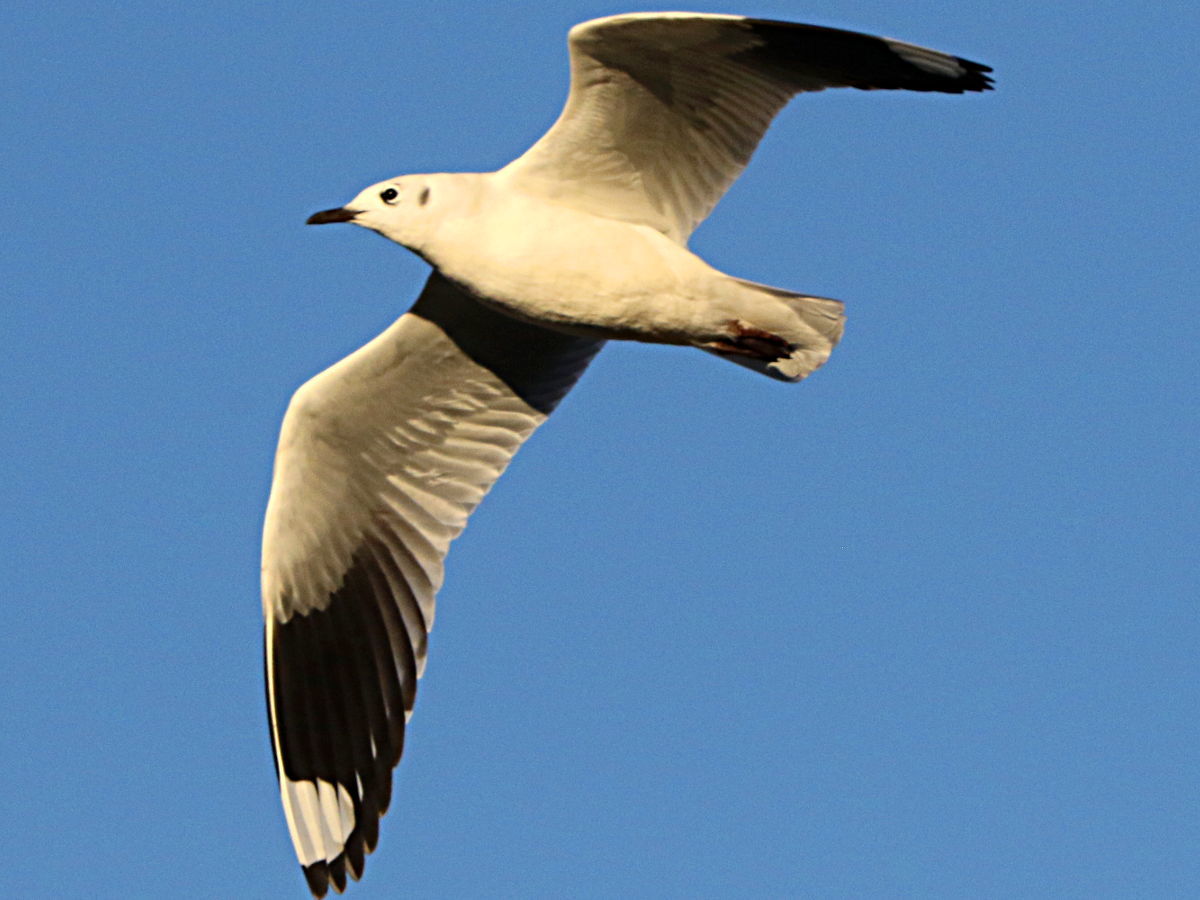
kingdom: Animalia
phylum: Chordata
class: Aves
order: Charadriiformes
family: Laridae
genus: Chroicocephalus
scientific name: Chroicocephalus serranus
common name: Andean gull
